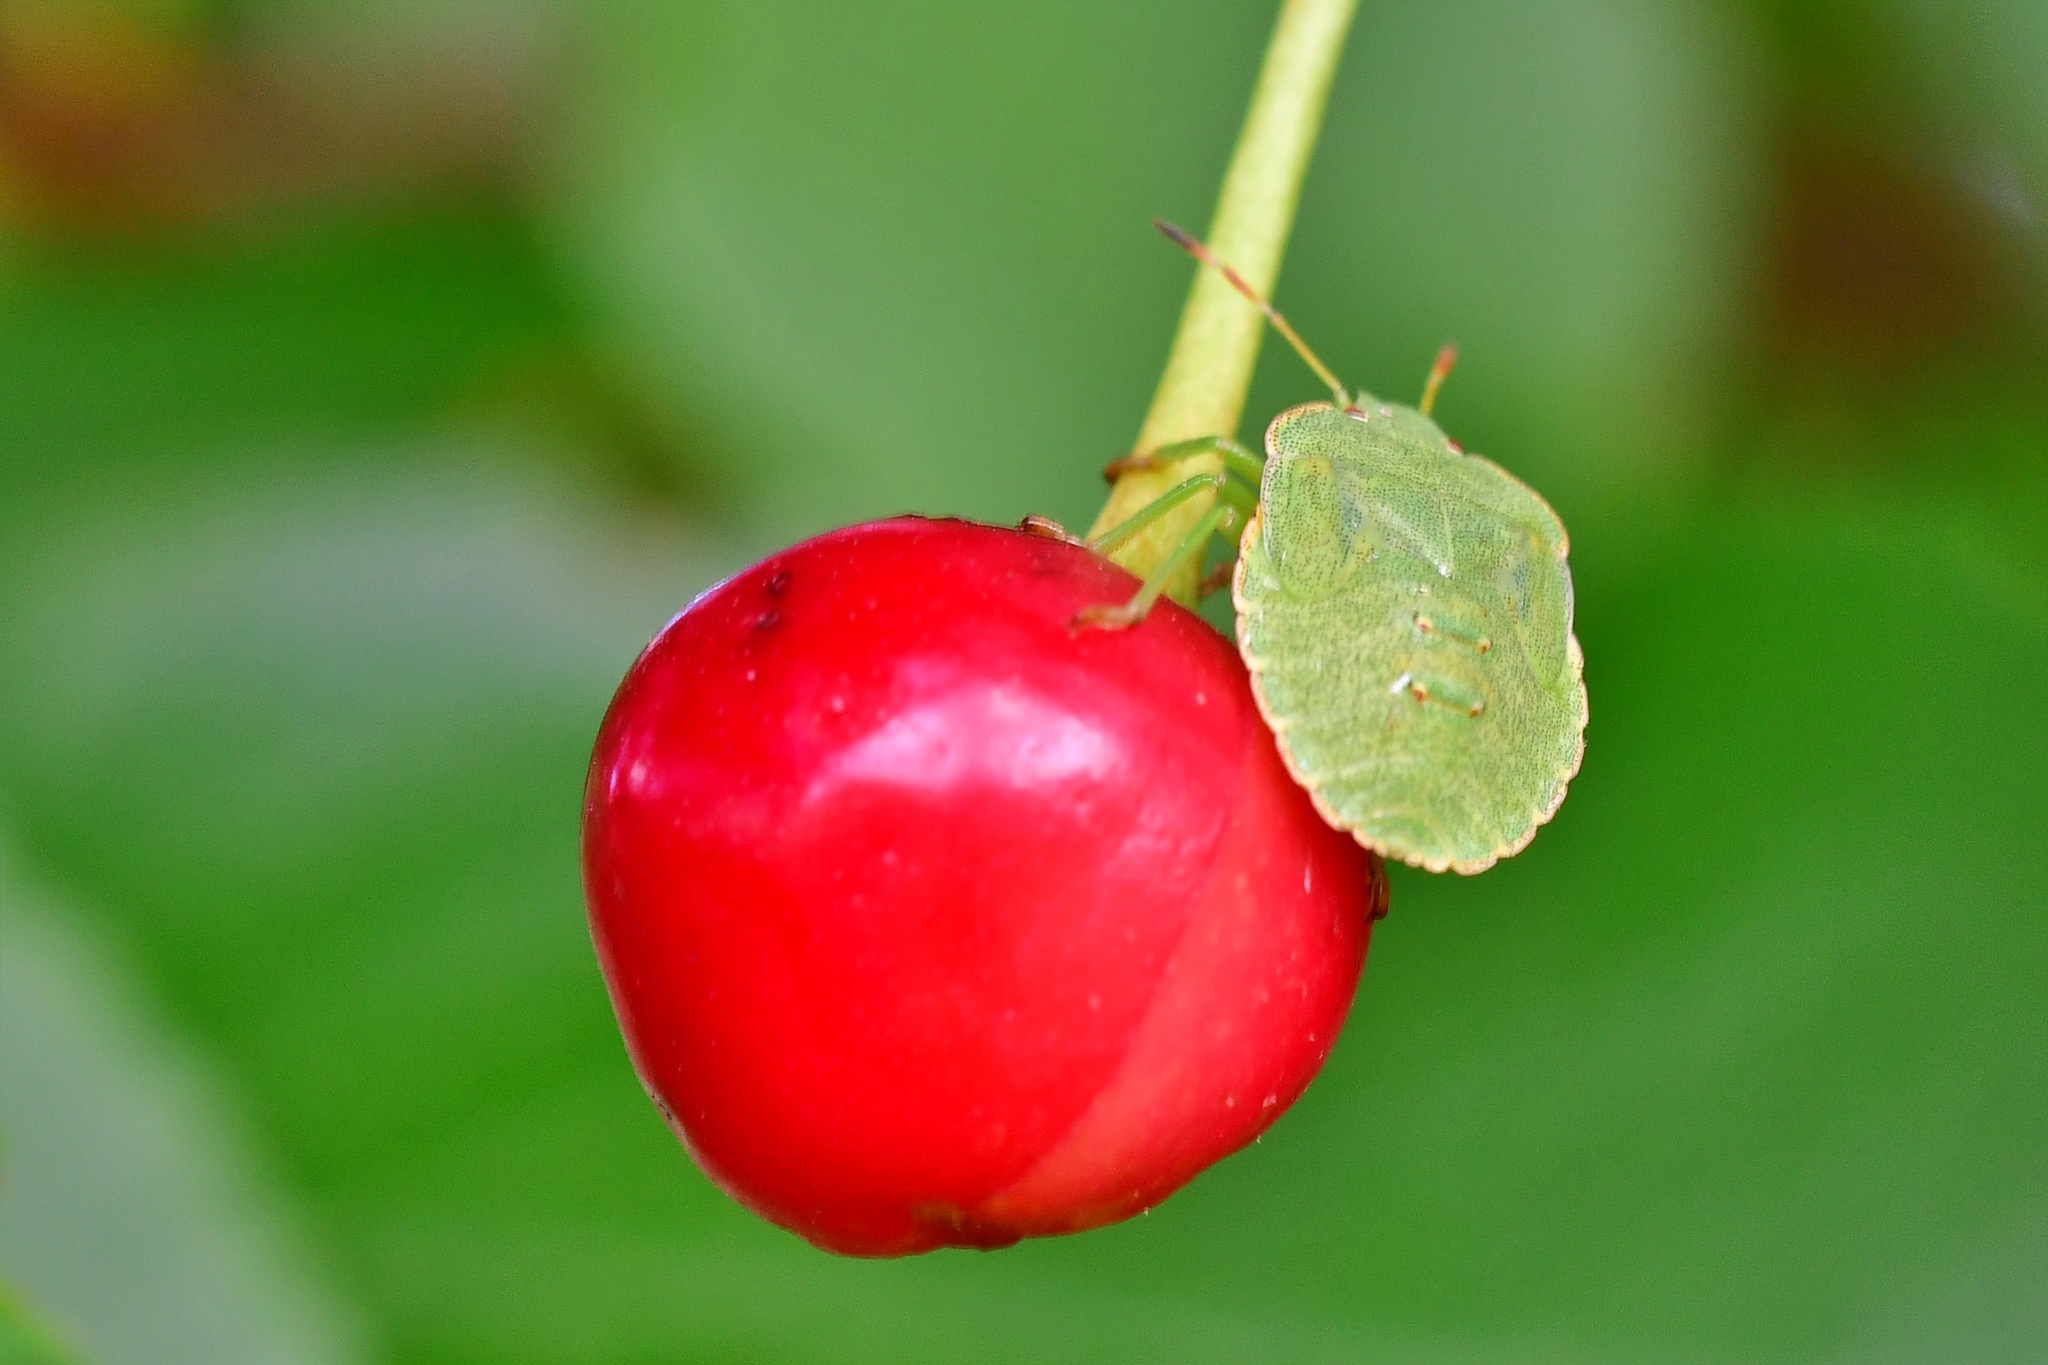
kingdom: Animalia
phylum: Arthropoda
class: Insecta
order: Hemiptera
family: Pentatomidae
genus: Palomena
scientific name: Palomena prasina
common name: Green shieldbug
